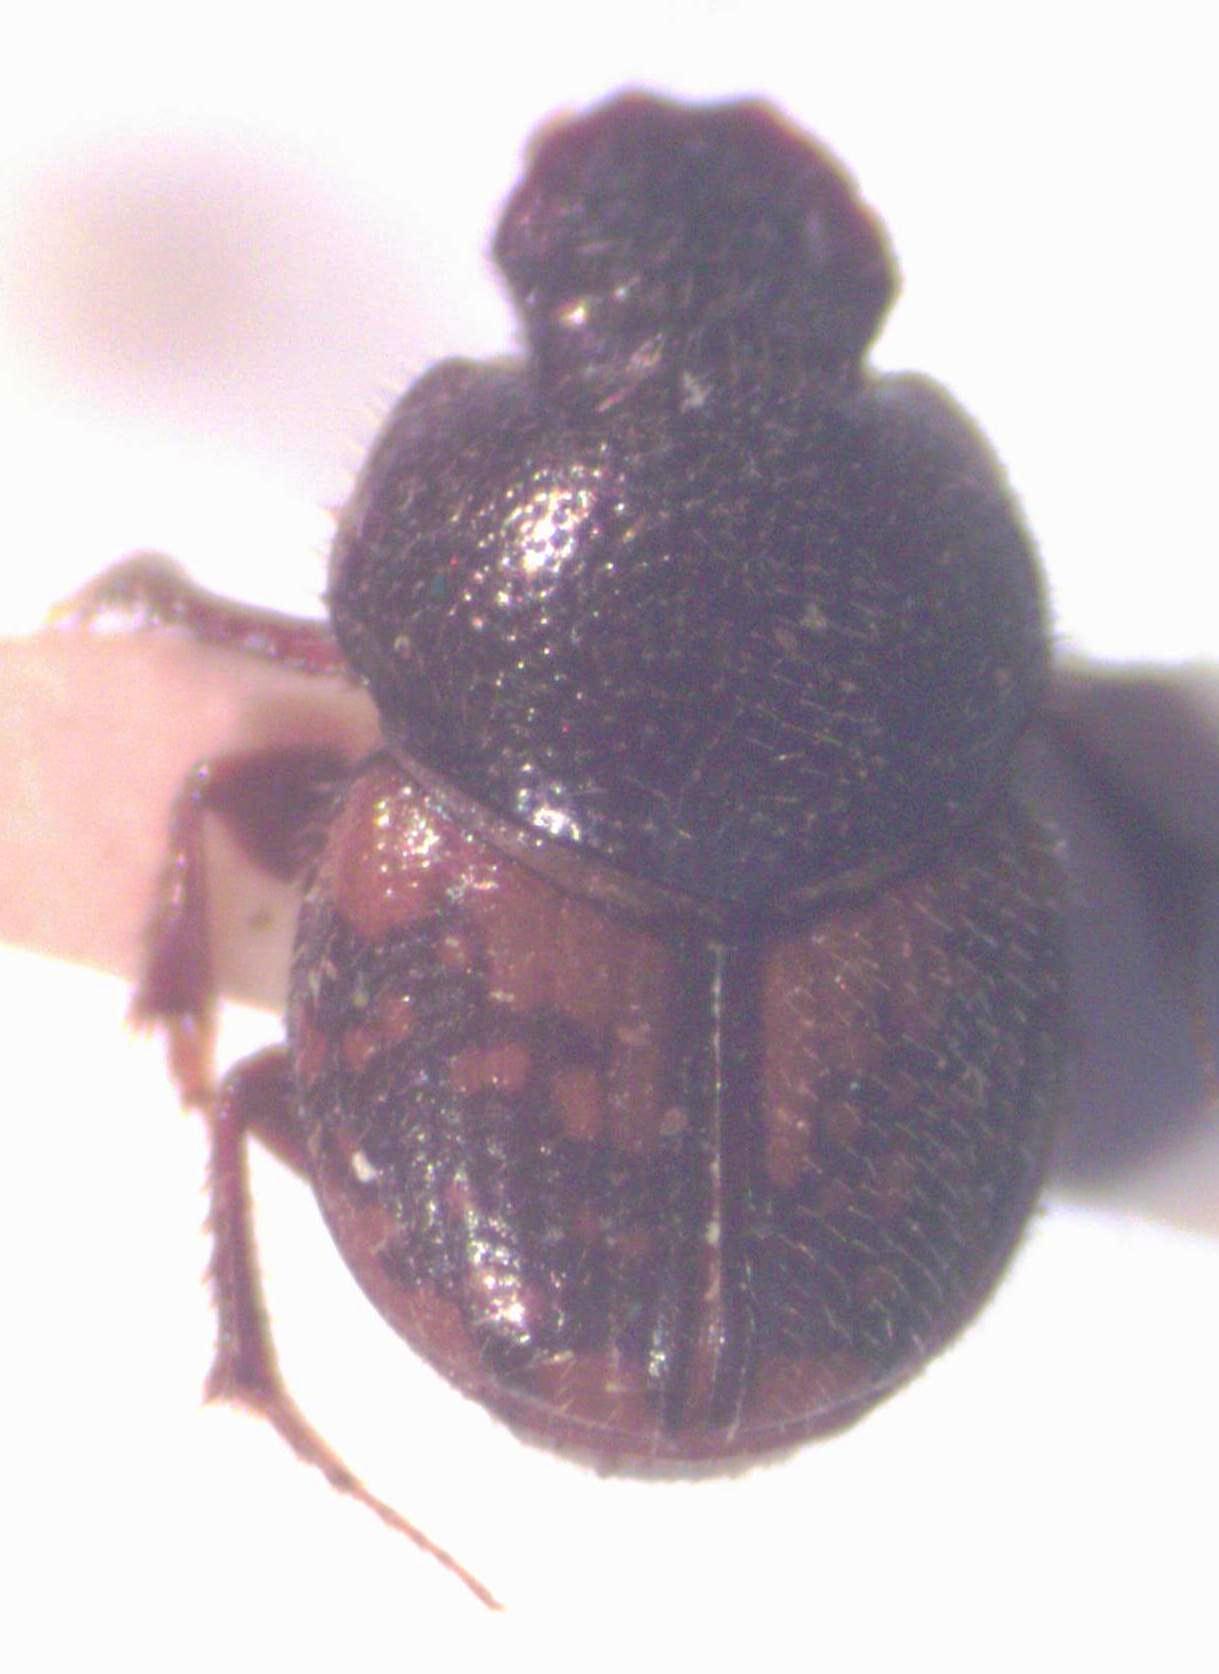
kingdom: Animalia
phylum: Arthropoda
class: Insecta
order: Coleoptera
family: Scarabaeidae
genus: Onthophagus
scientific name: Onthophagus hoepfneri
